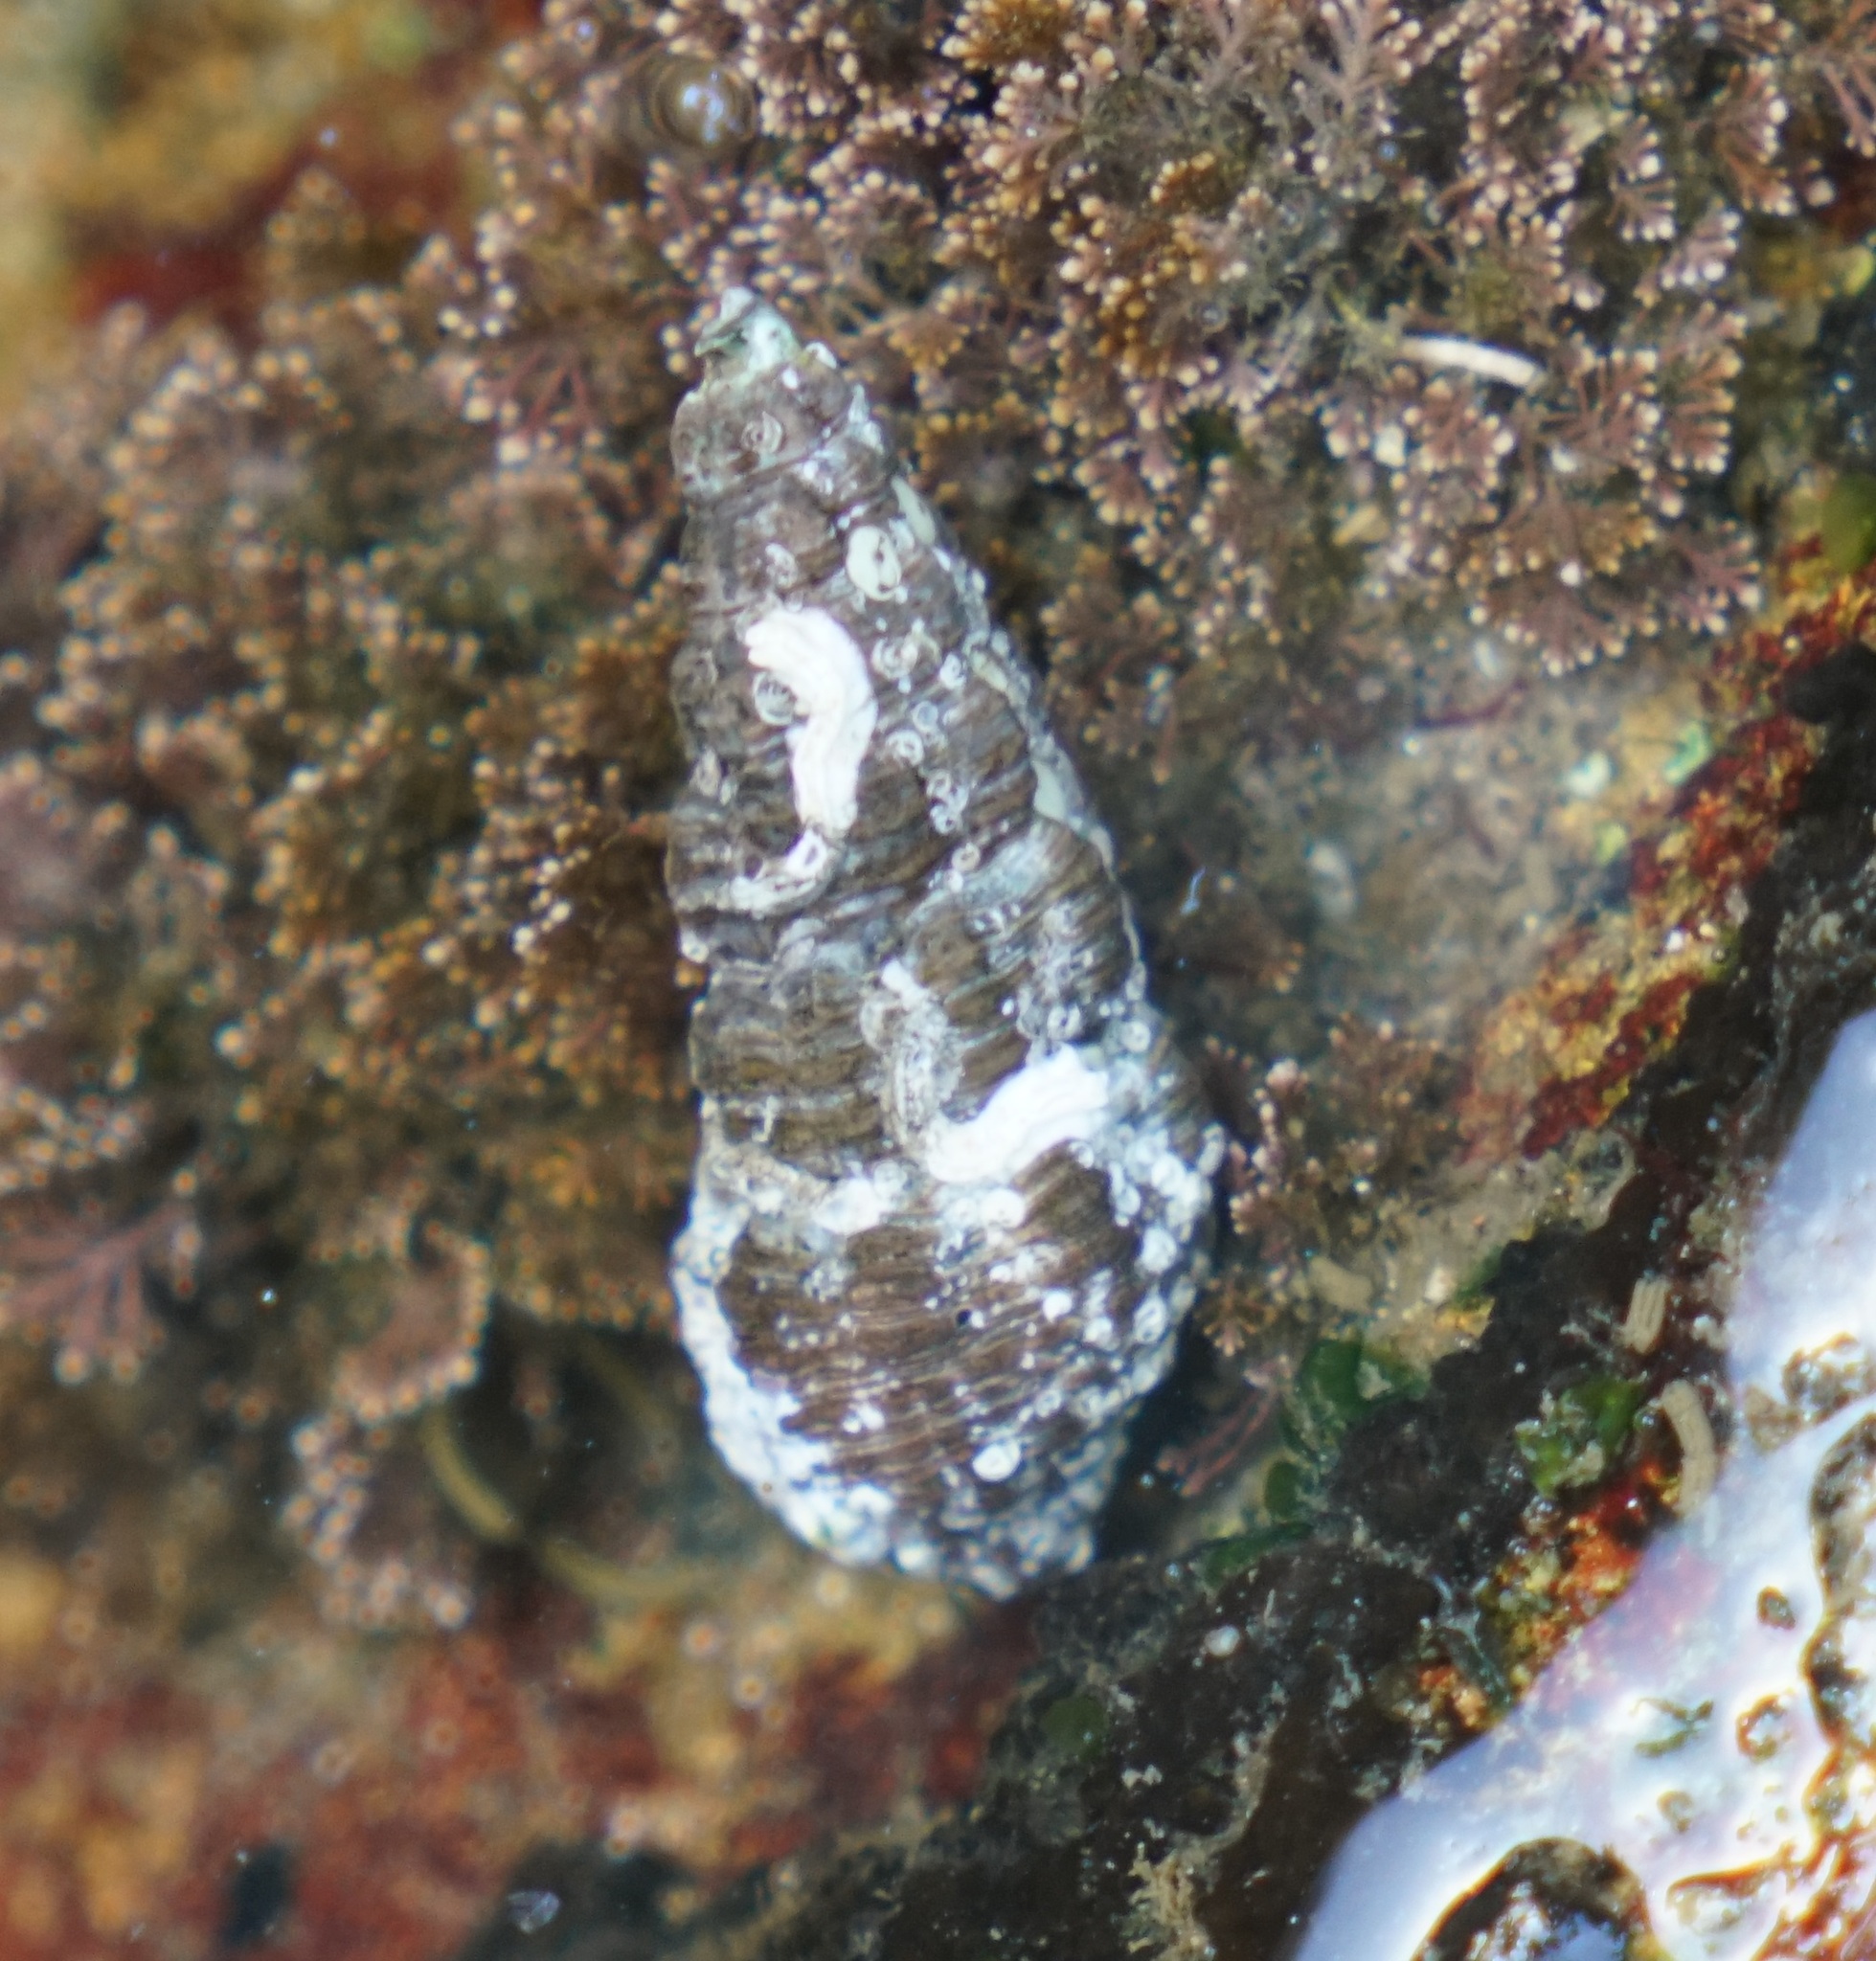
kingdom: Animalia
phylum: Mollusca
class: Gastropoda
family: Batillariidae
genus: Batillaria
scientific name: Batillaria australis
